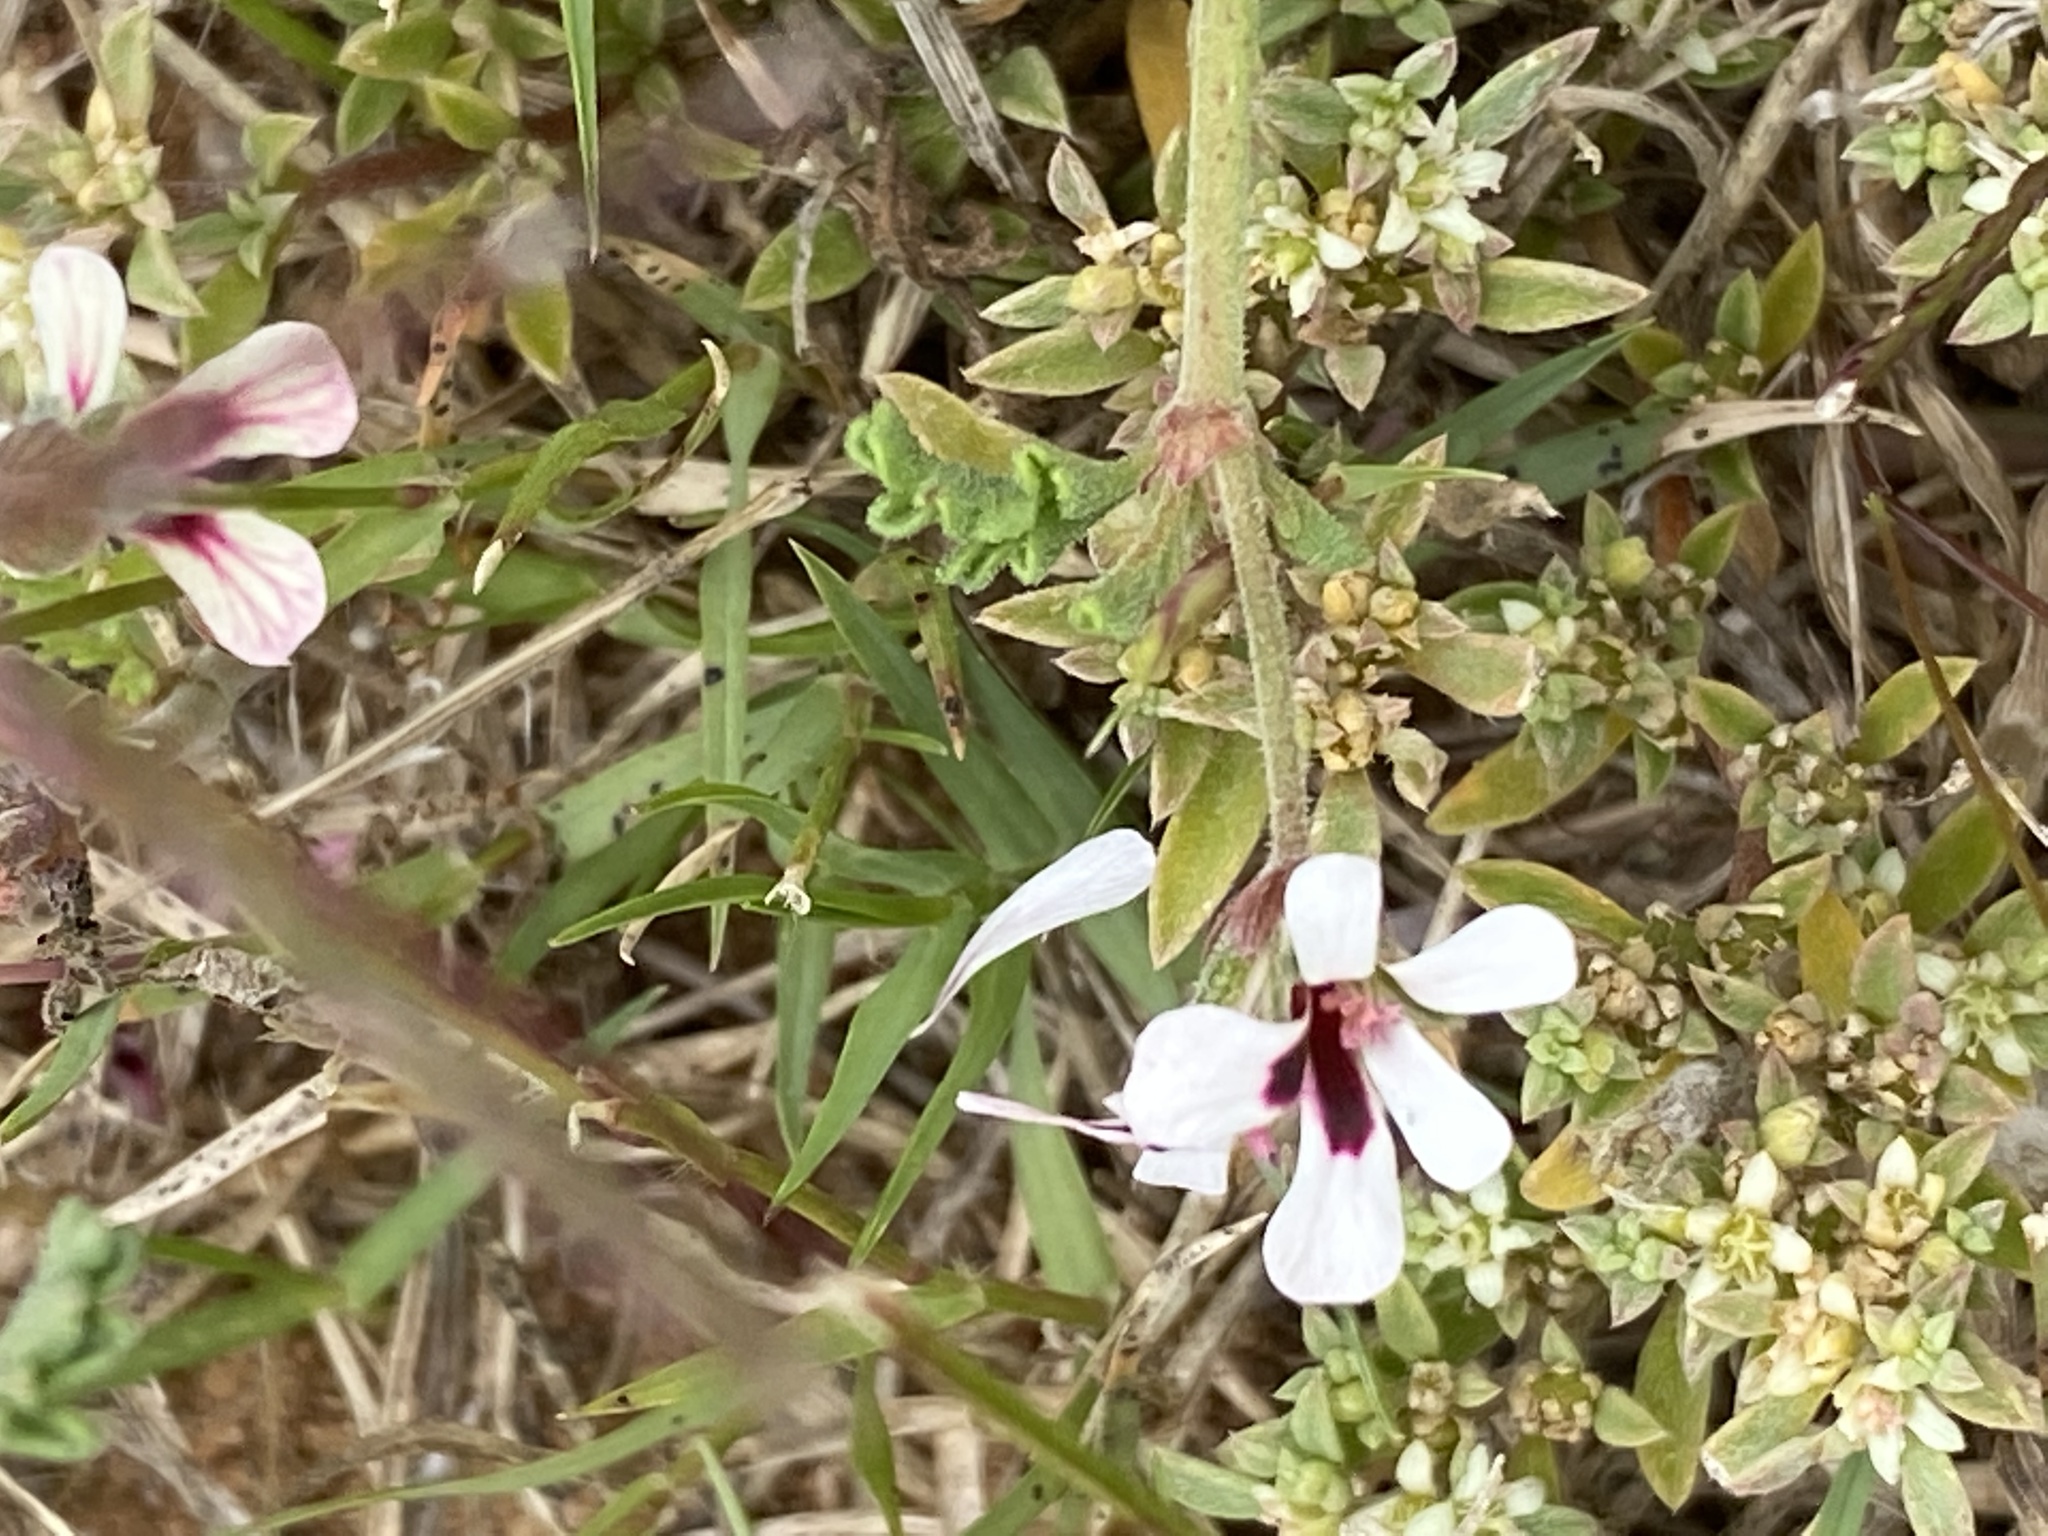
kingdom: Plantae
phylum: Tracheophyta
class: Magnoliopsida
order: Geraniales
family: Geraniaceae
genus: Pelargonium
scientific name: Pelargonium senecioides
